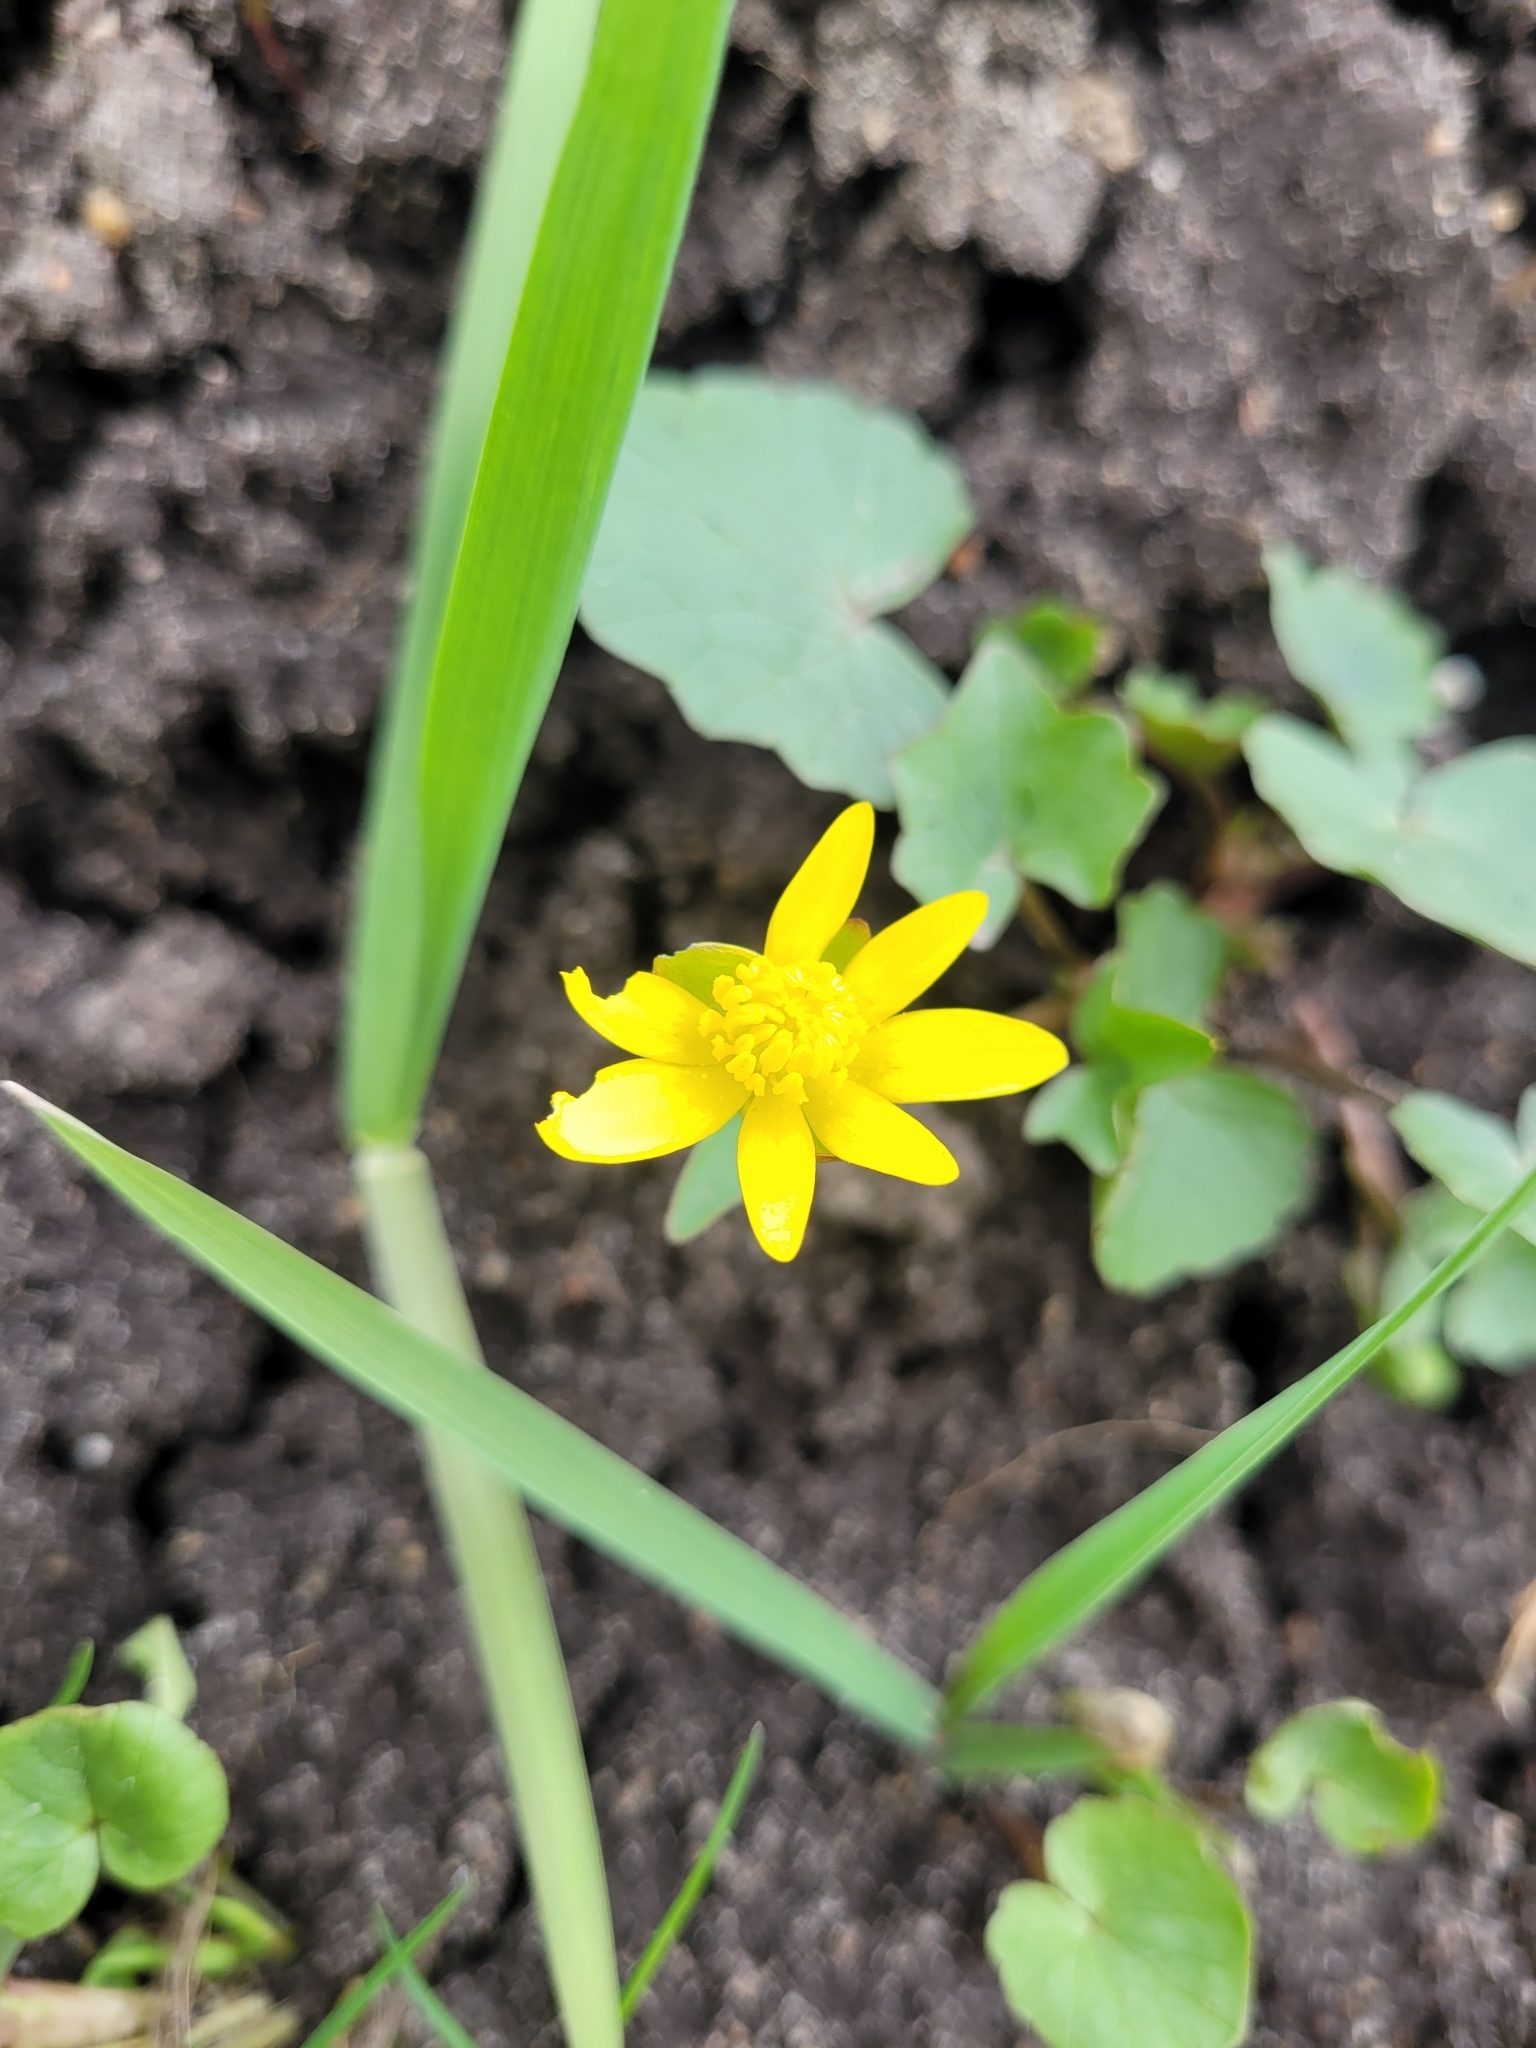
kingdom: Plantae
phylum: Tracheophyta
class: Magnoliopsida
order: Ranunculales
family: Ranunculaceae
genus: Ficaria
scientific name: Ficaria verna
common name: Lesser celandine
